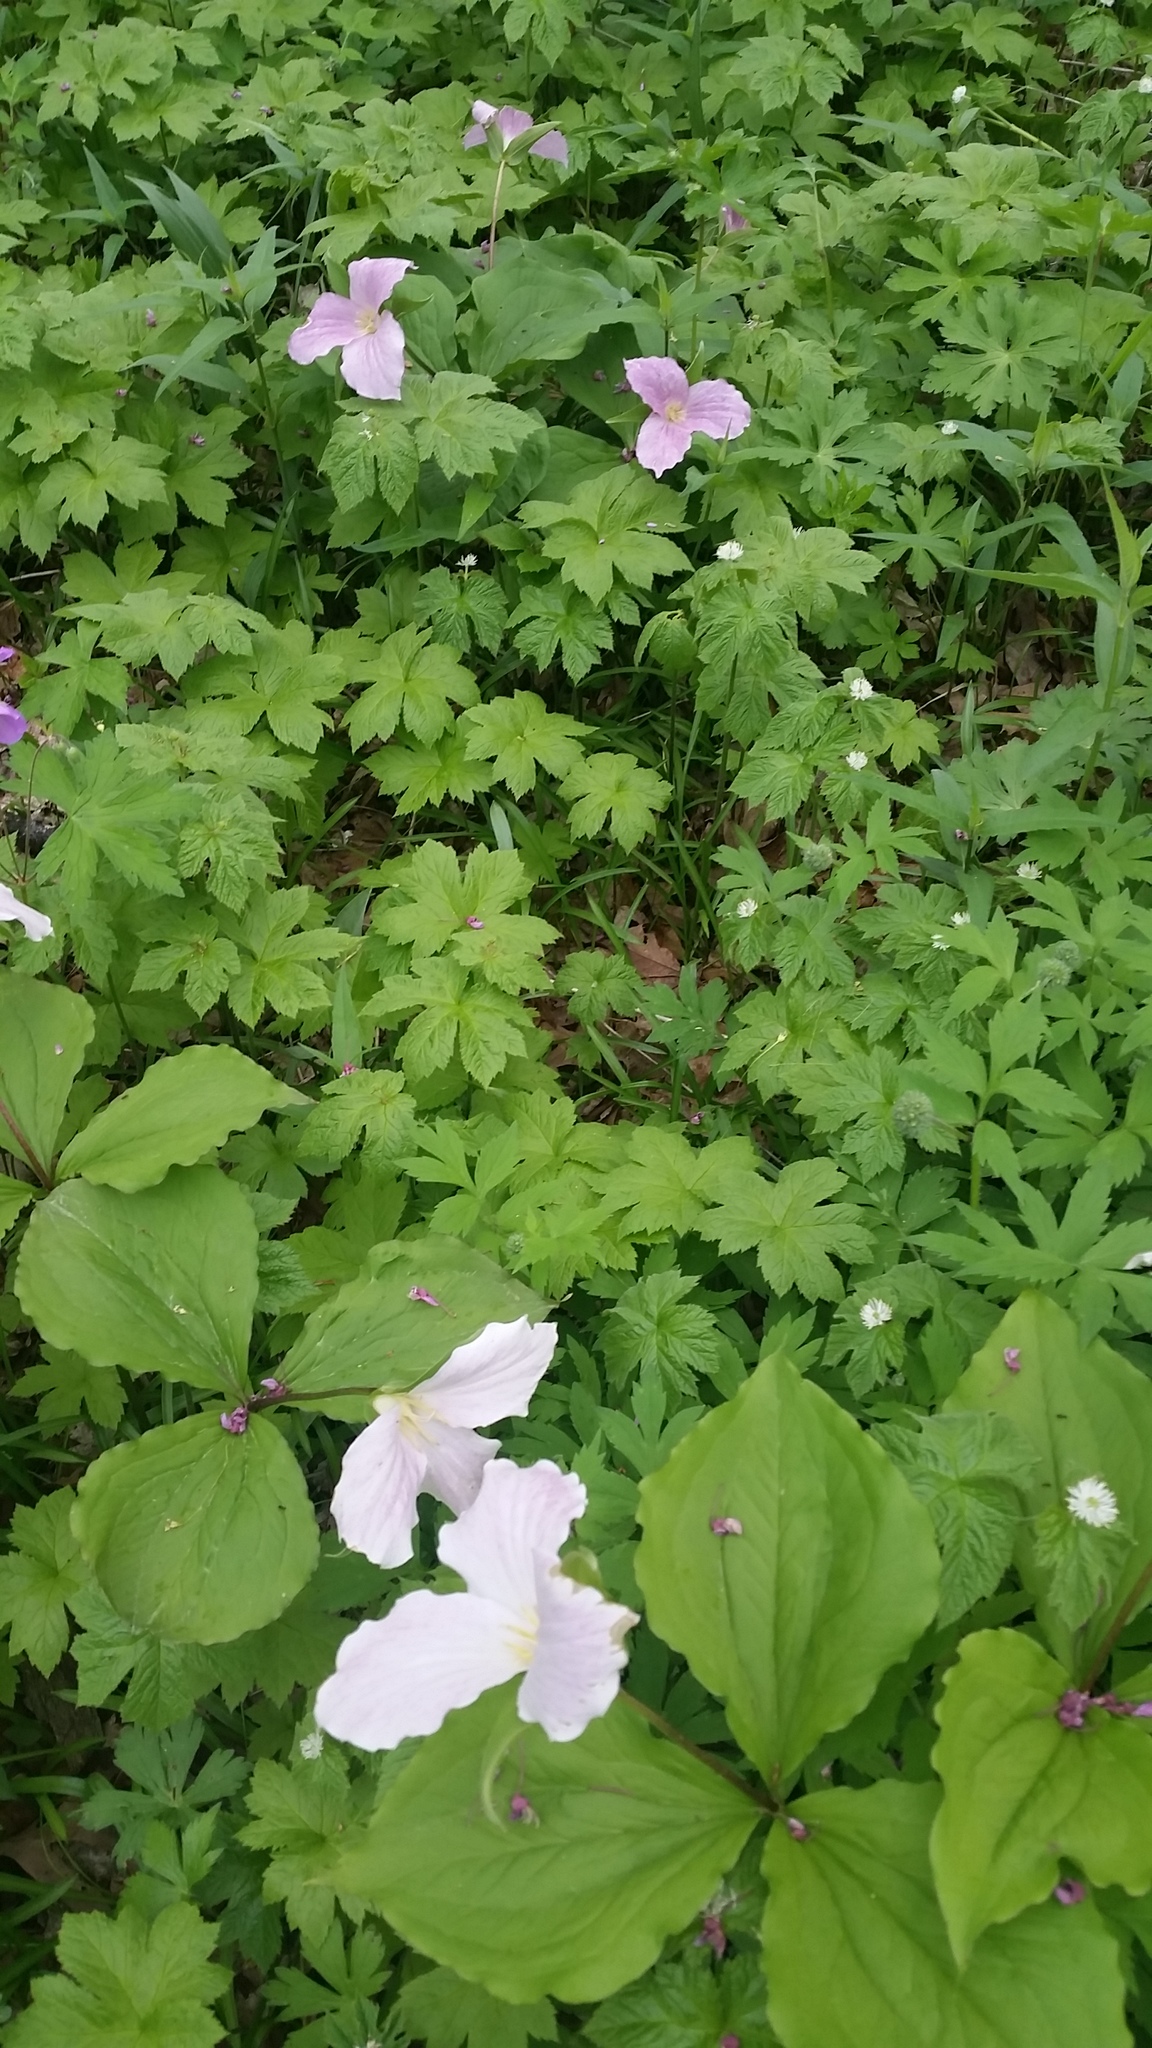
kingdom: Plantae
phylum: Tracheophyta
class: Liliopsida
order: Liliales
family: Melanthiaceae
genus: Trillium
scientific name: Trillium grandiflorum
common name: Great white trillium
